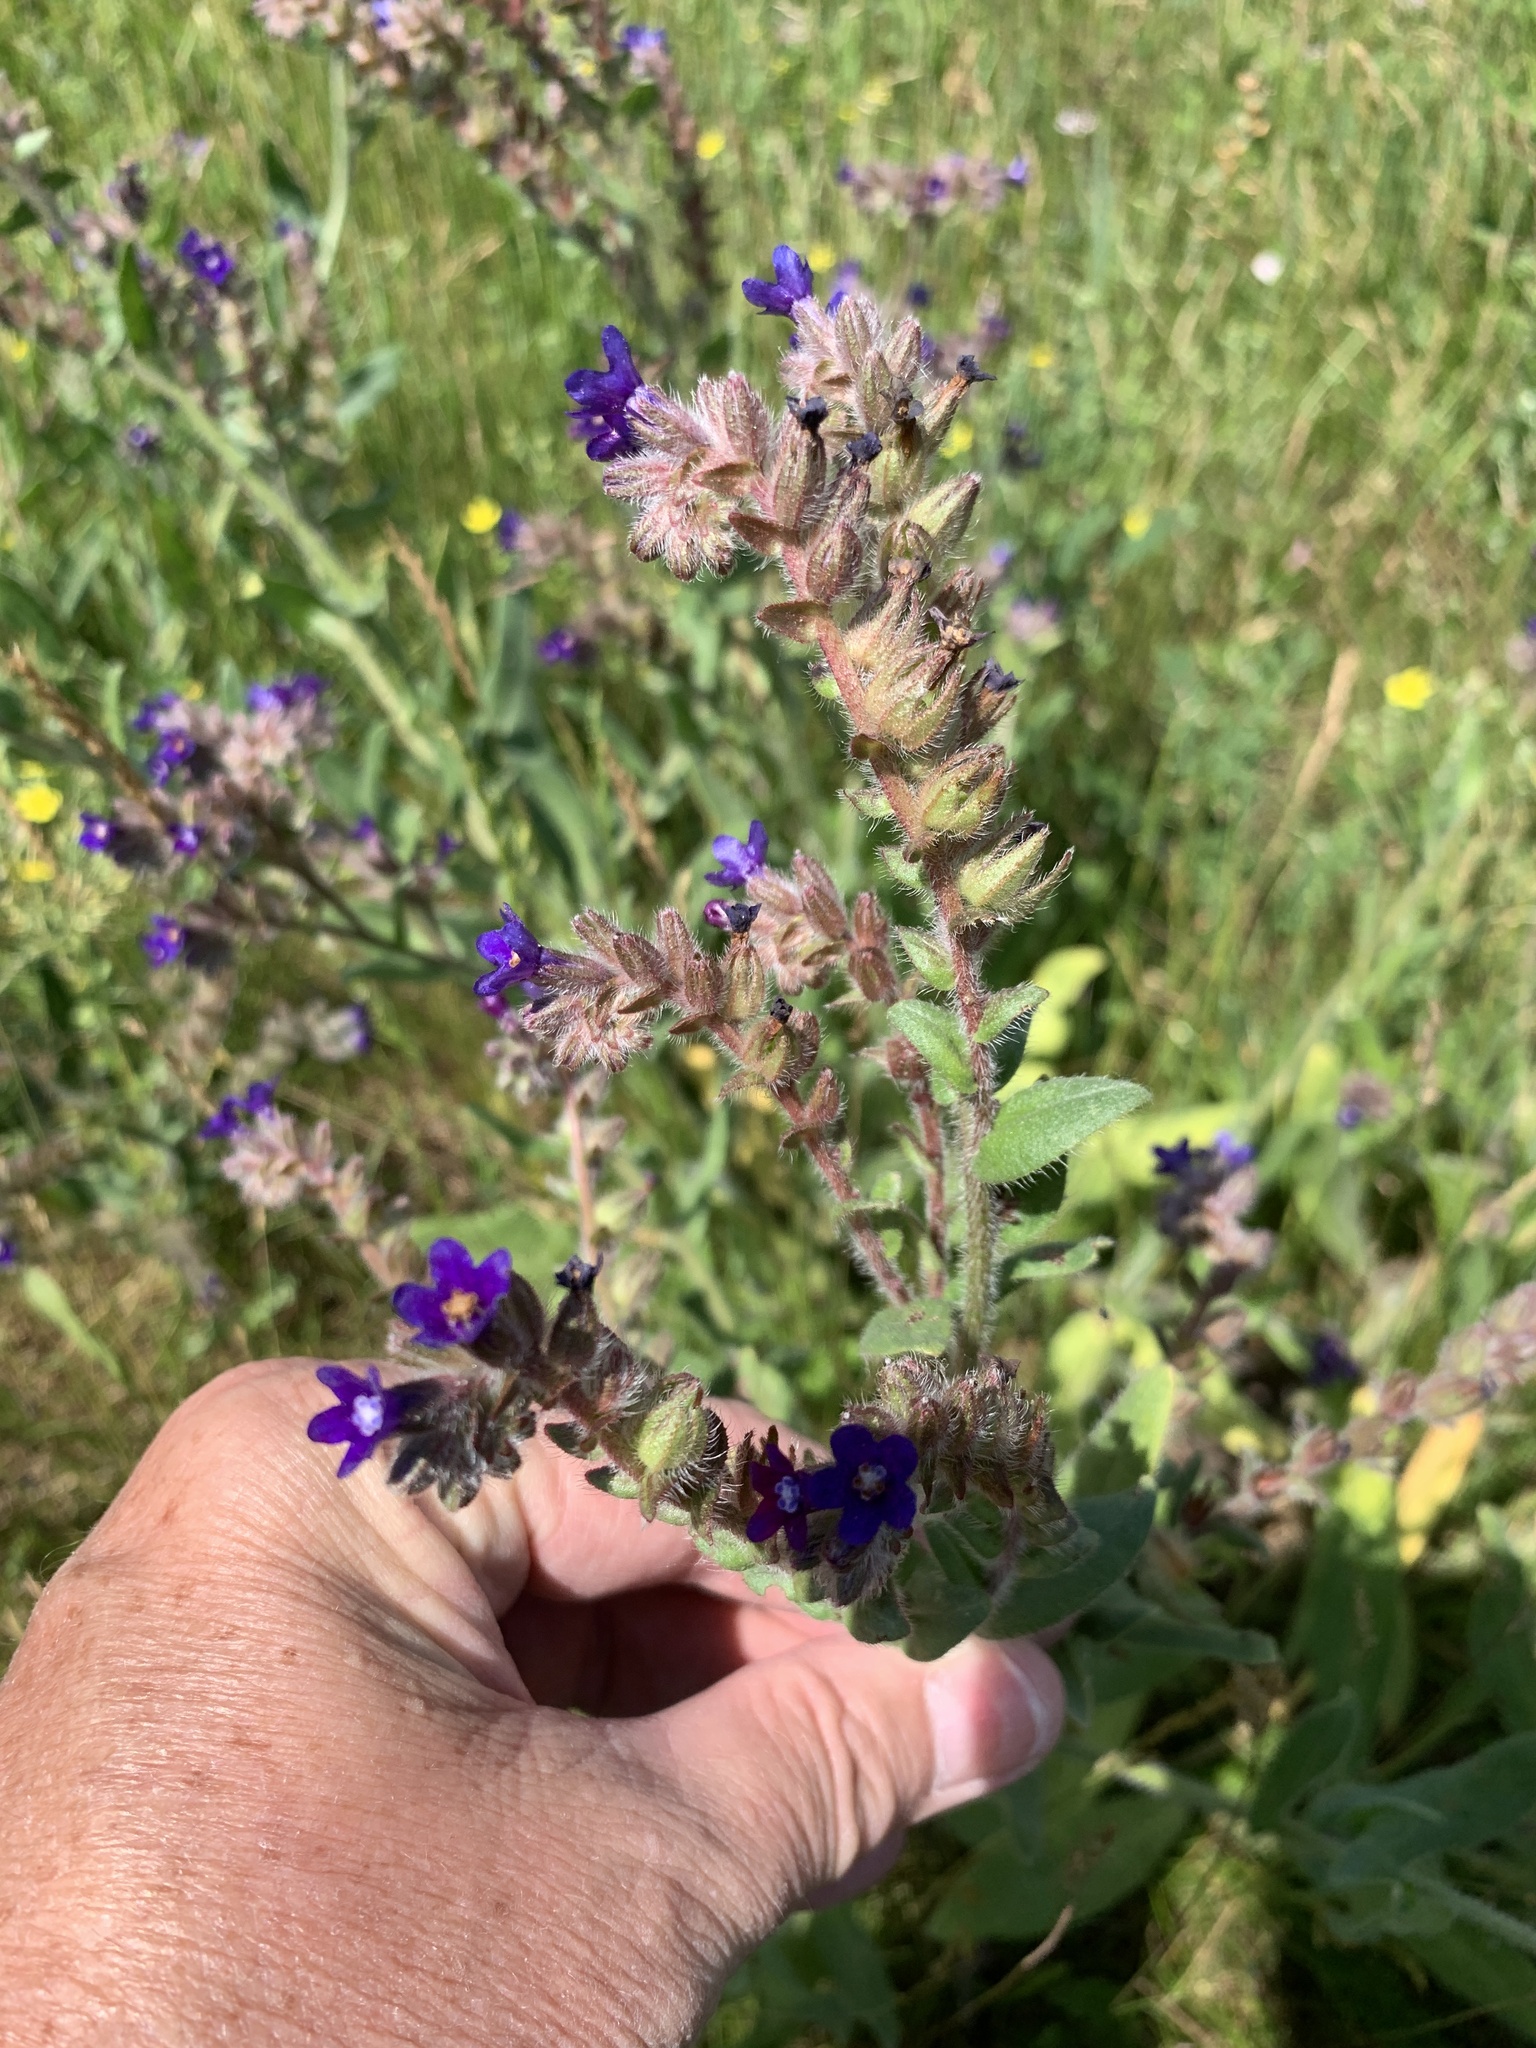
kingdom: Plantae
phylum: Tracheophyta
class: Magnoliopsida
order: Boraginales
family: Boraginaceae
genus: Anchusa
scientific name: Anchusa officinalis
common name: Alkanet
